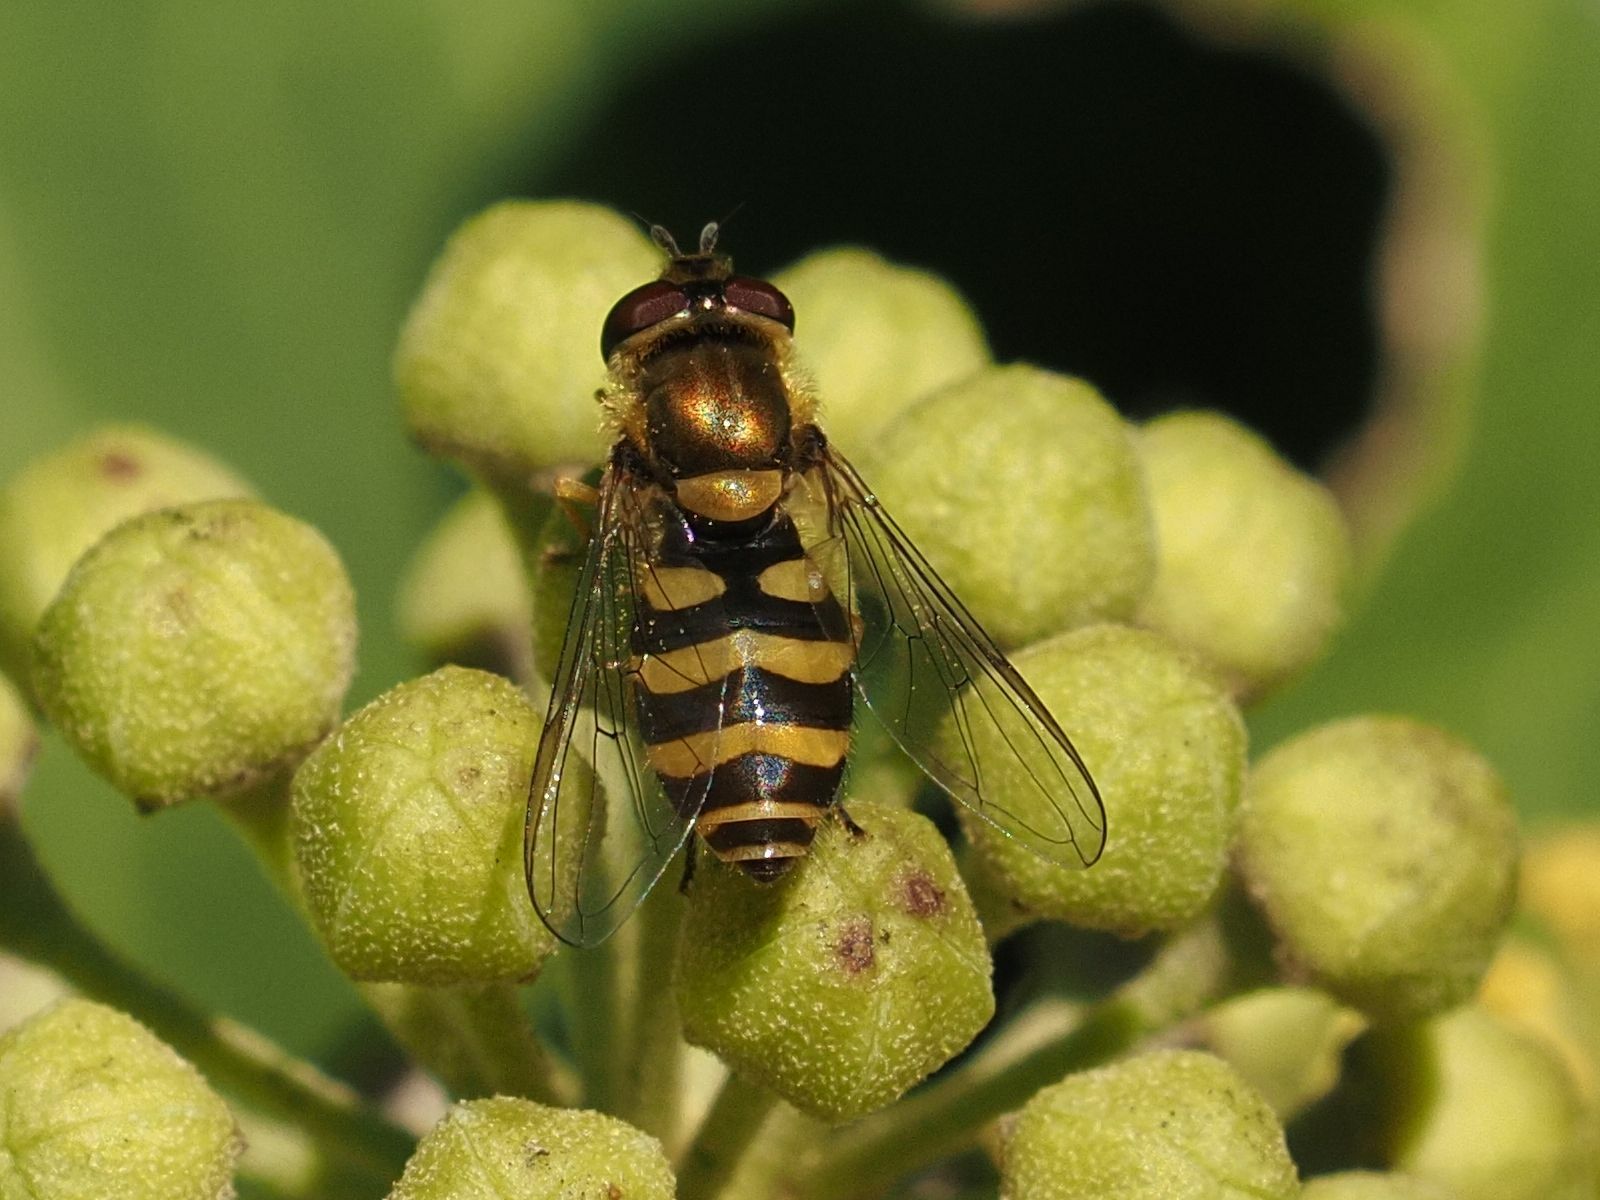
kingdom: Animalia
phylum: Arthropoda
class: Insecta
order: Diptera
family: Syrphidae
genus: Syrphus
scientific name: Syrphus
